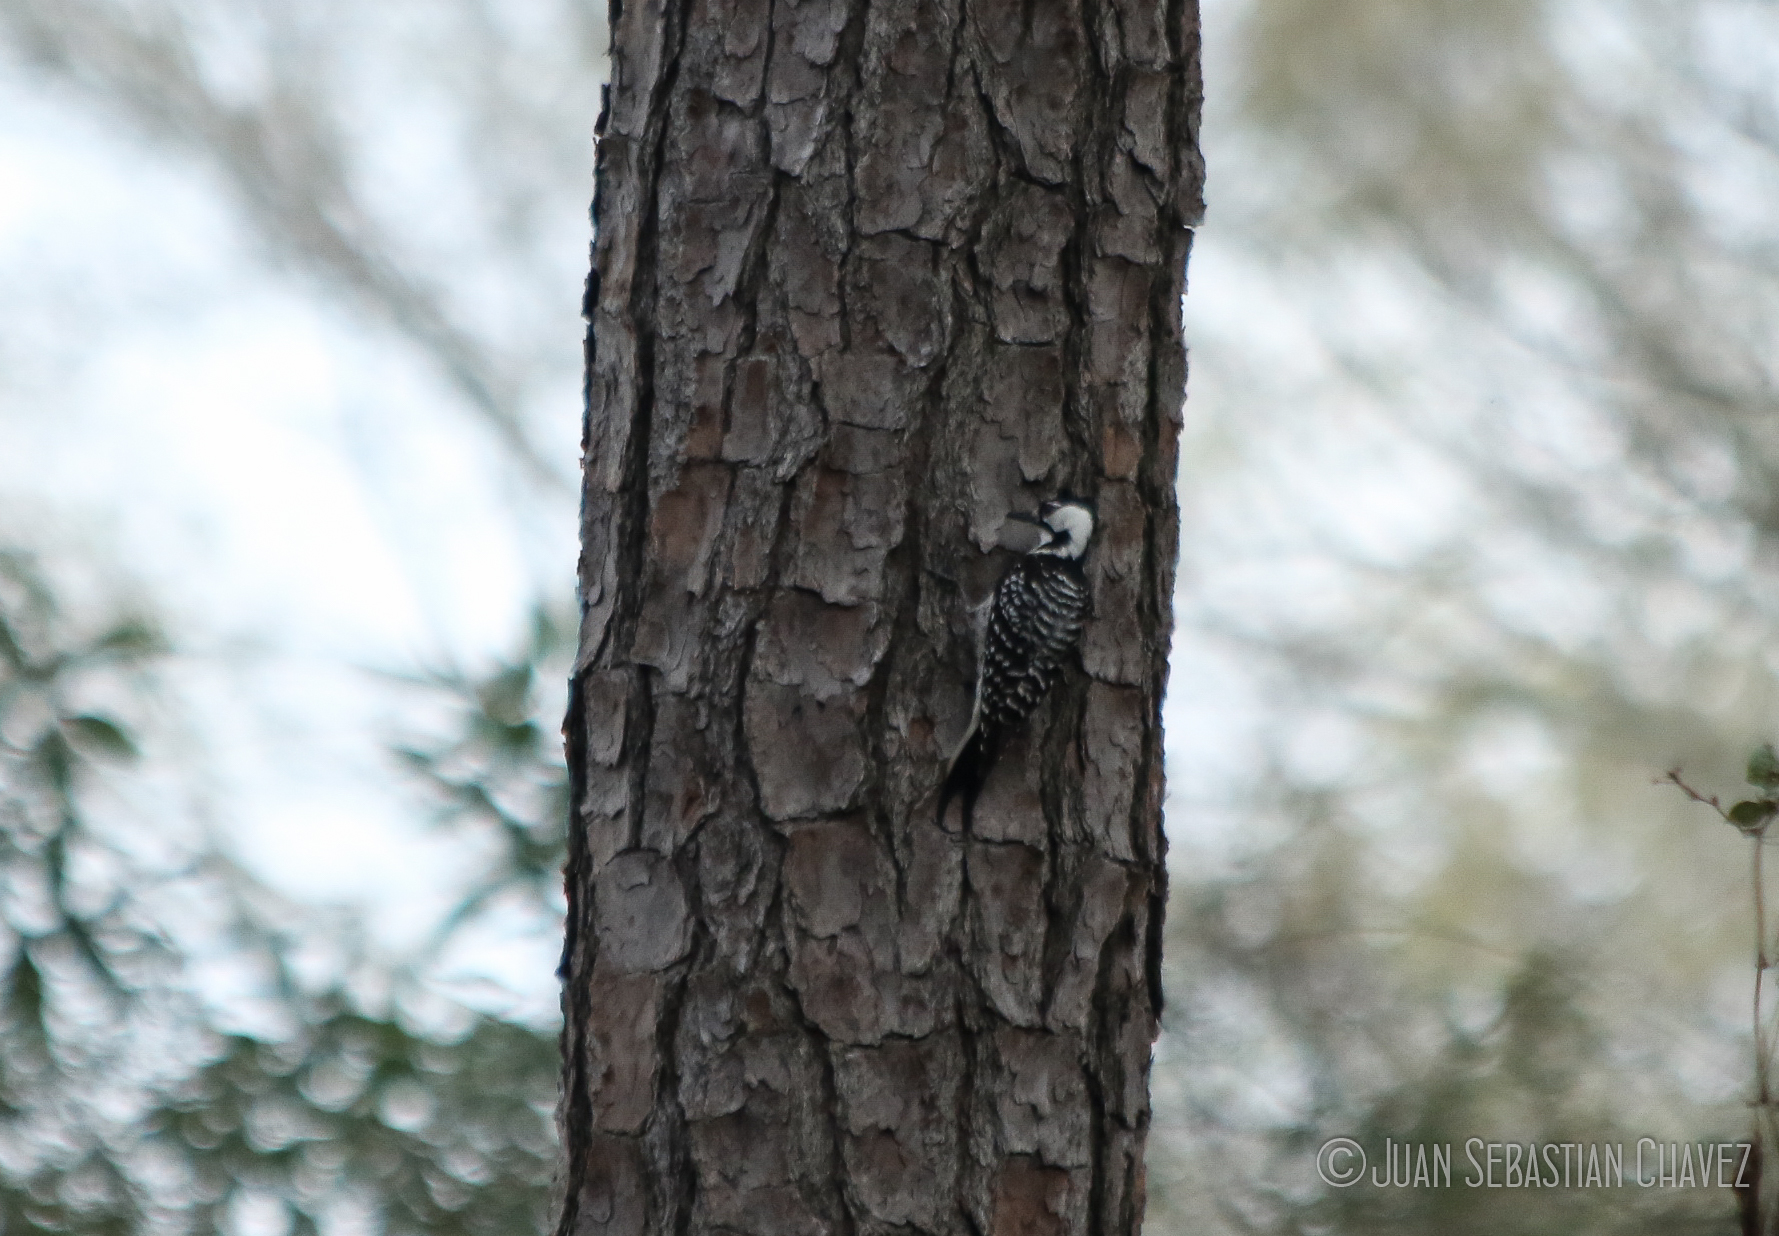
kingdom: Animalia
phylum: Chordata
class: Aves
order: Piciformes
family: Picidae
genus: Leuconotopicus
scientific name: Leuconotopicus borealis
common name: Red-cockaded woodpecker
